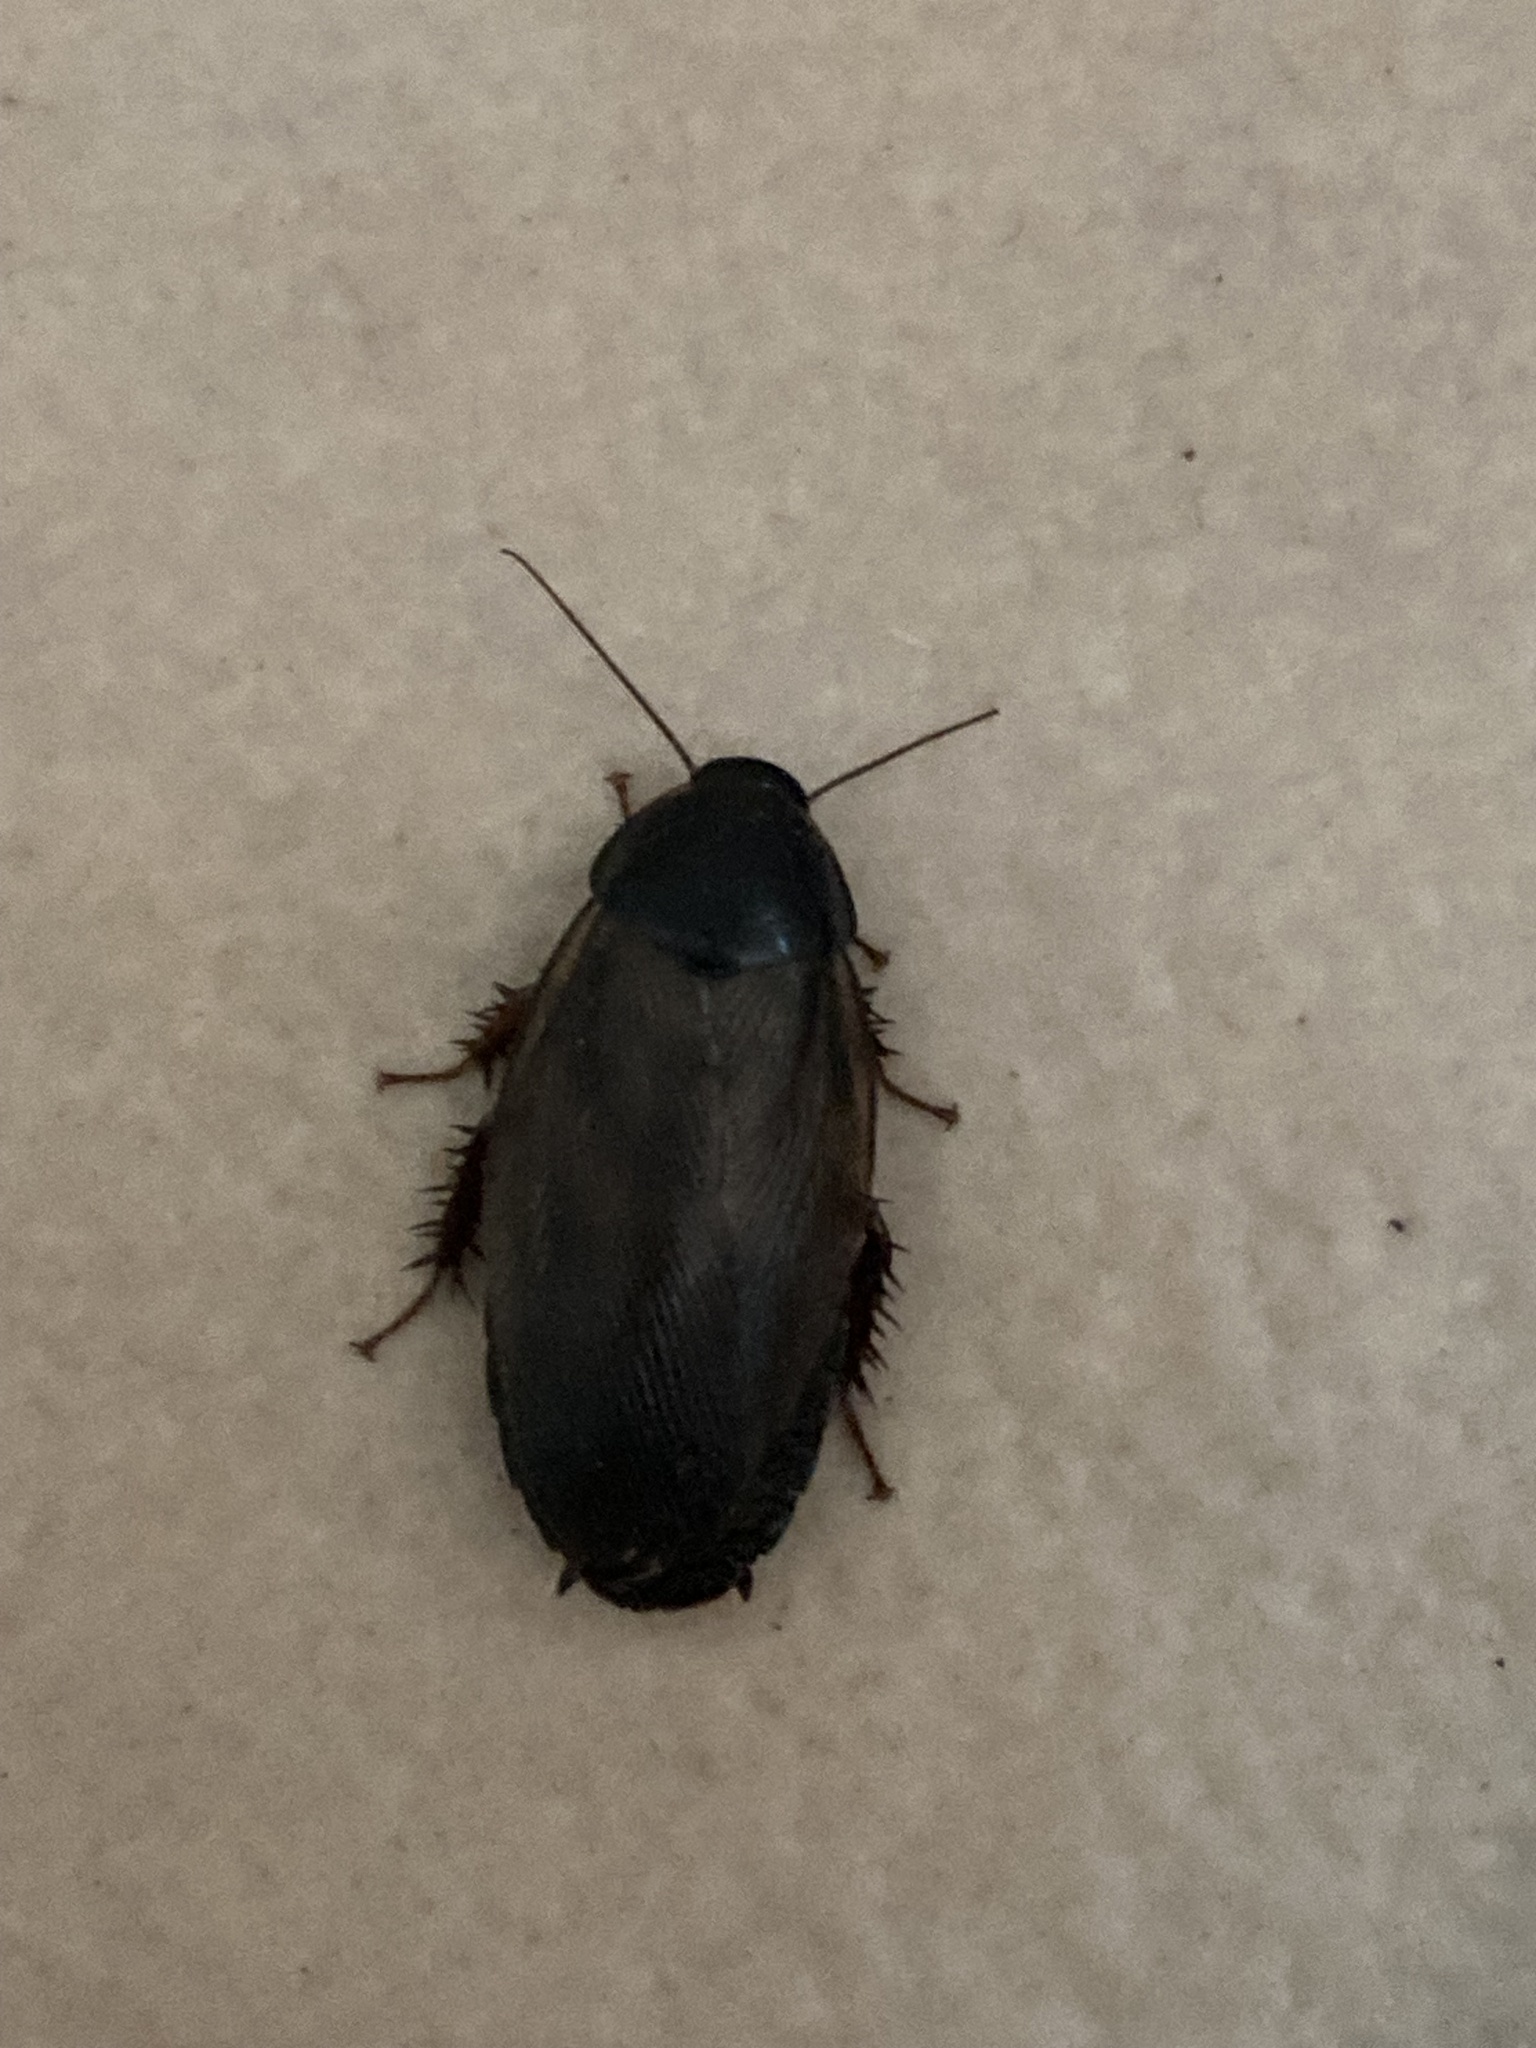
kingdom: Animalia
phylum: Arthropoda
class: Insecta
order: Blattodea
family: Blaberidae
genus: Pycnoscelus
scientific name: Pycnoscelus surinamensis
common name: Surinam cockroach
